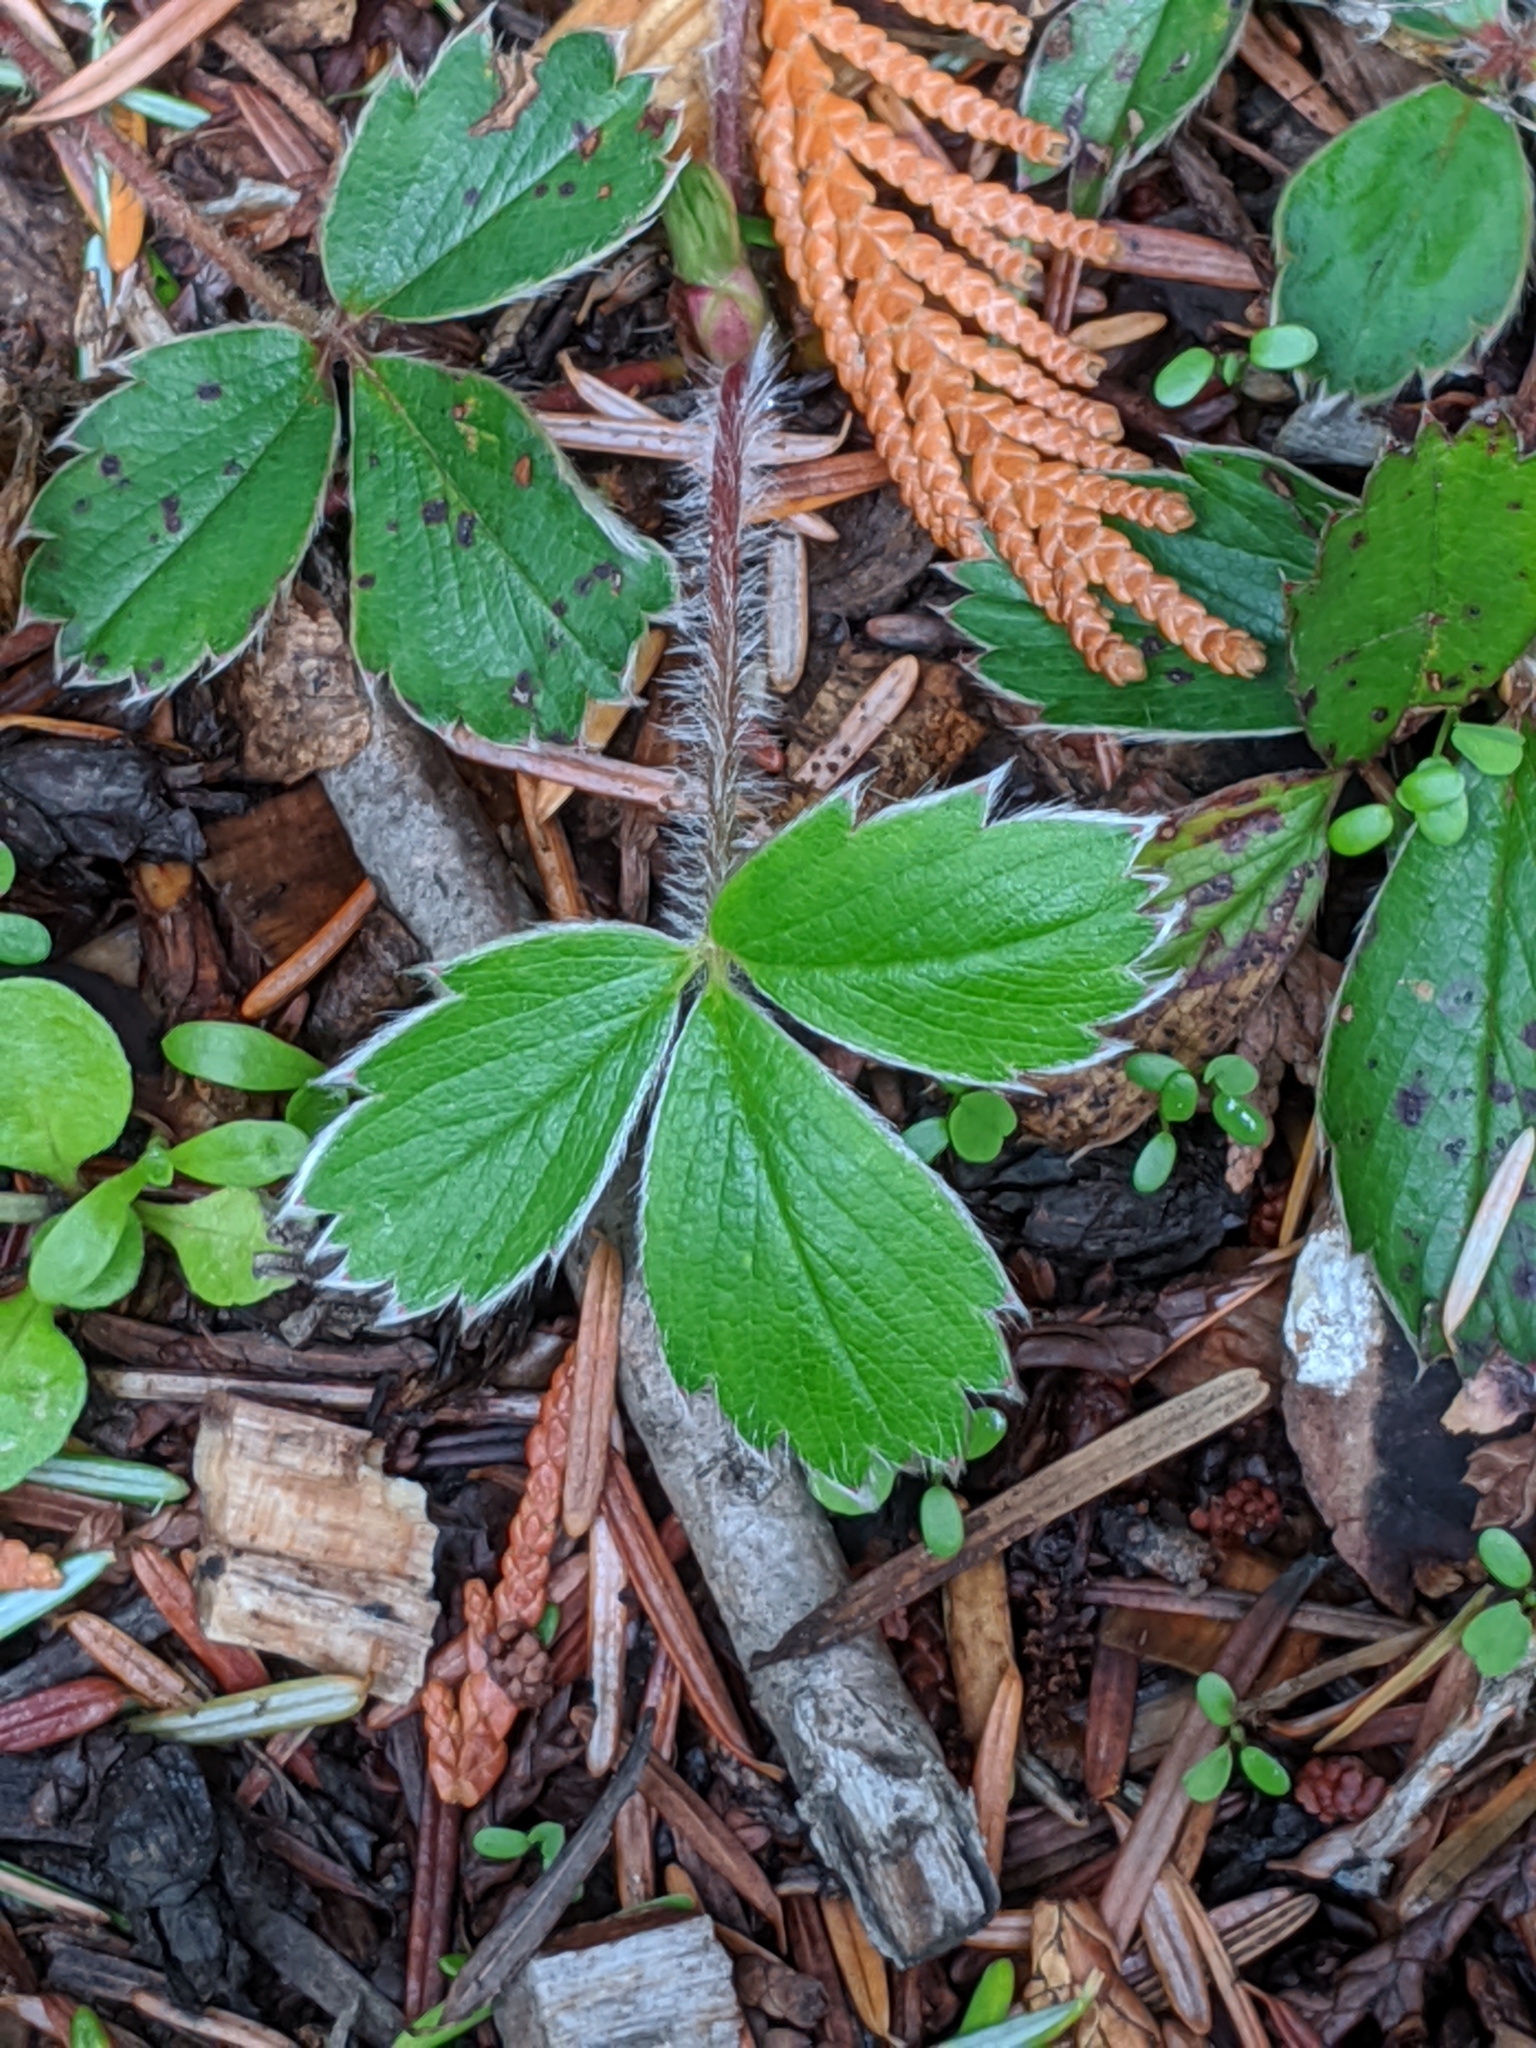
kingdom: Plantae
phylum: Tracheophyta
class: Magnoliopsida
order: Rosales
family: Rosaceae
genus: Fragaria
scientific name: Fragaria virginiana
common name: Thickleaved wild strawberry
